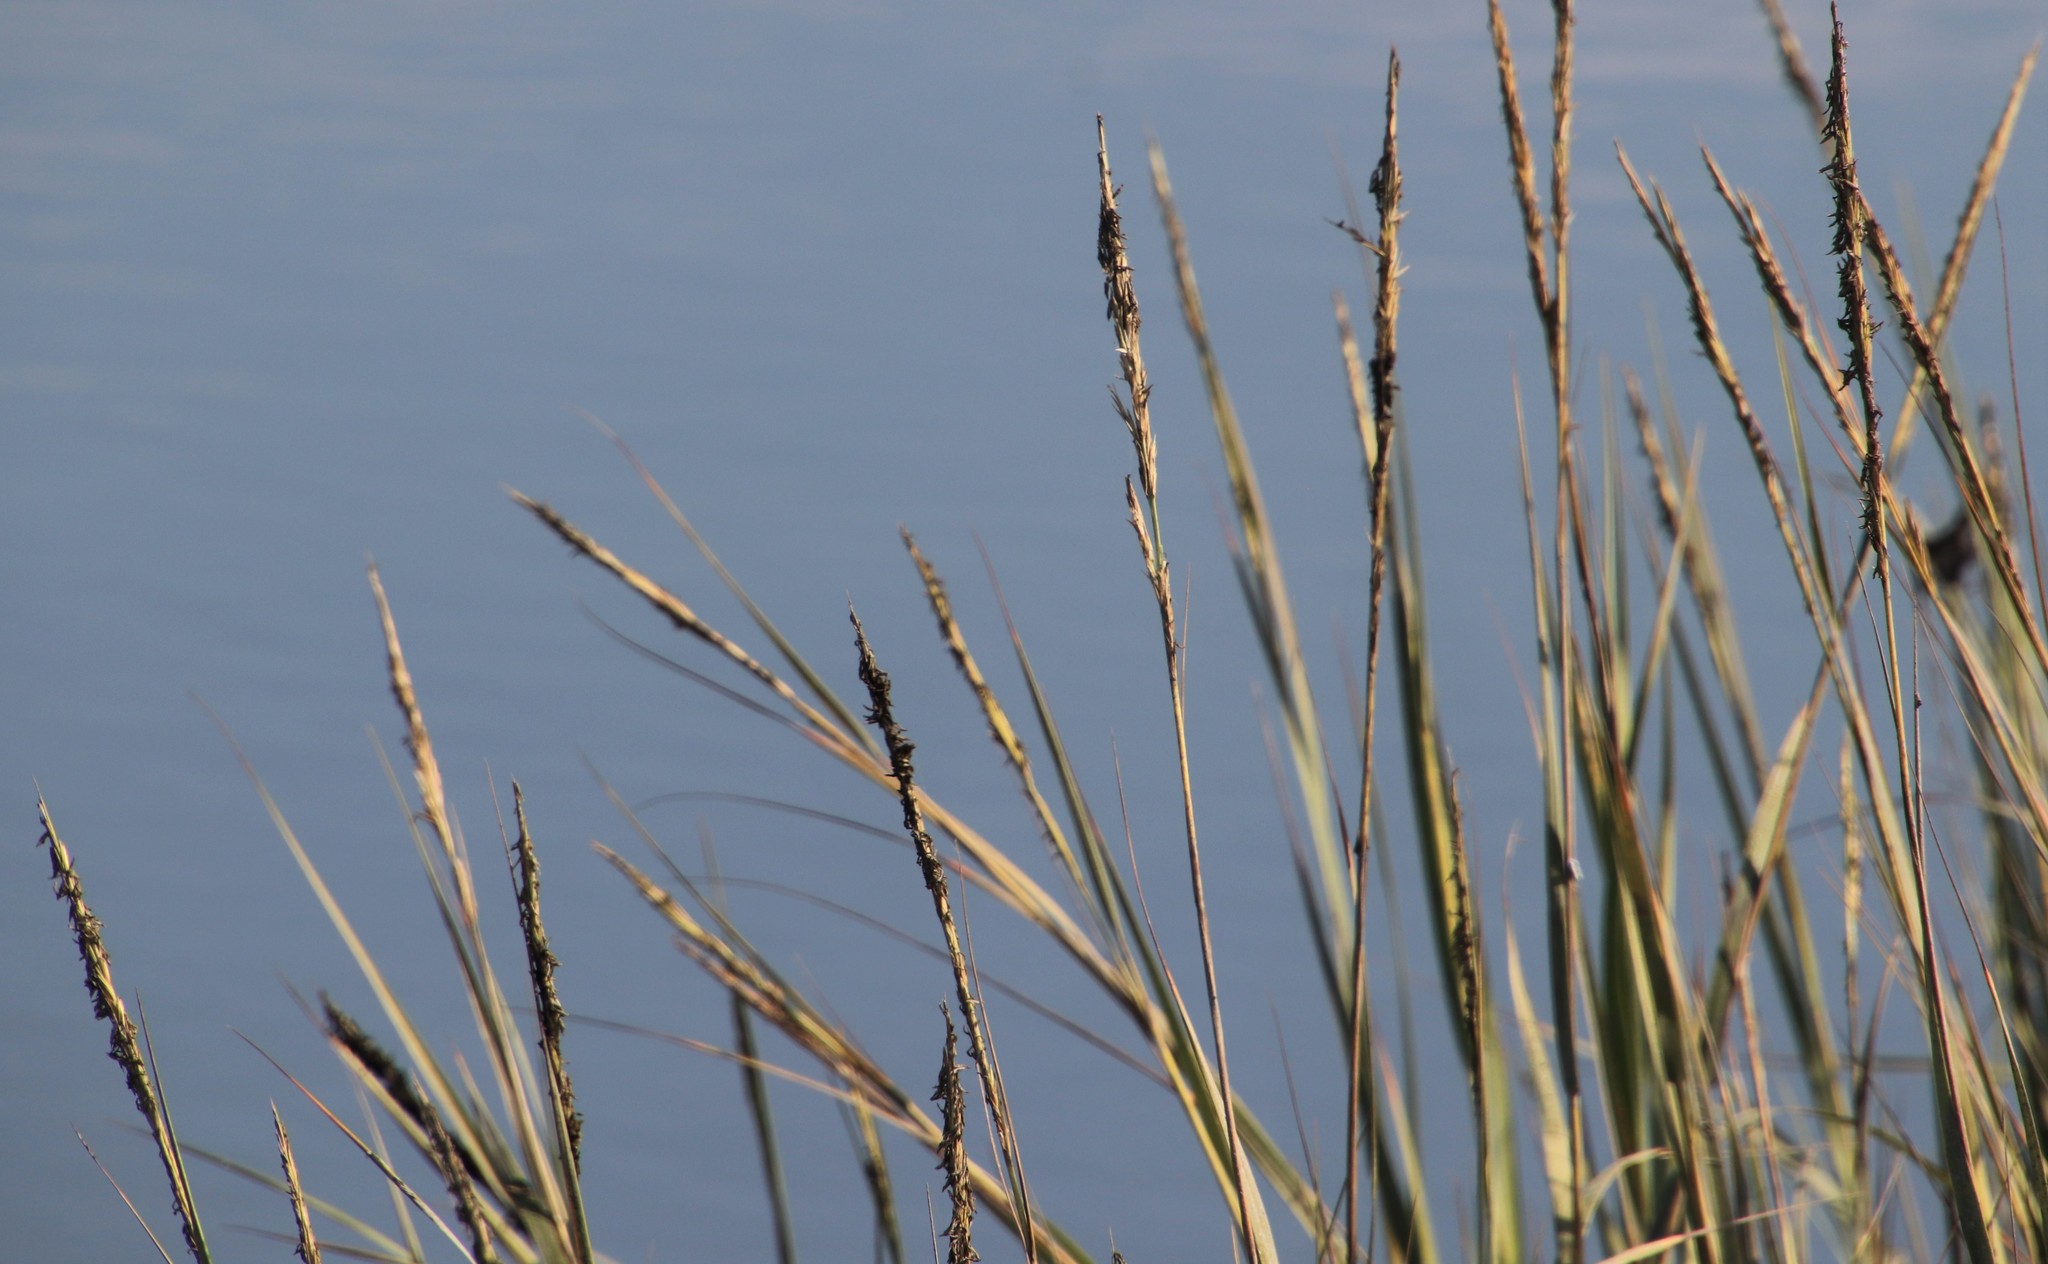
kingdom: Plantae
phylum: Tracheophyta
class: Liliopsida
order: Poales
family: Poaceae
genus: Sporobolus
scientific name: Sporobolus foliosus
